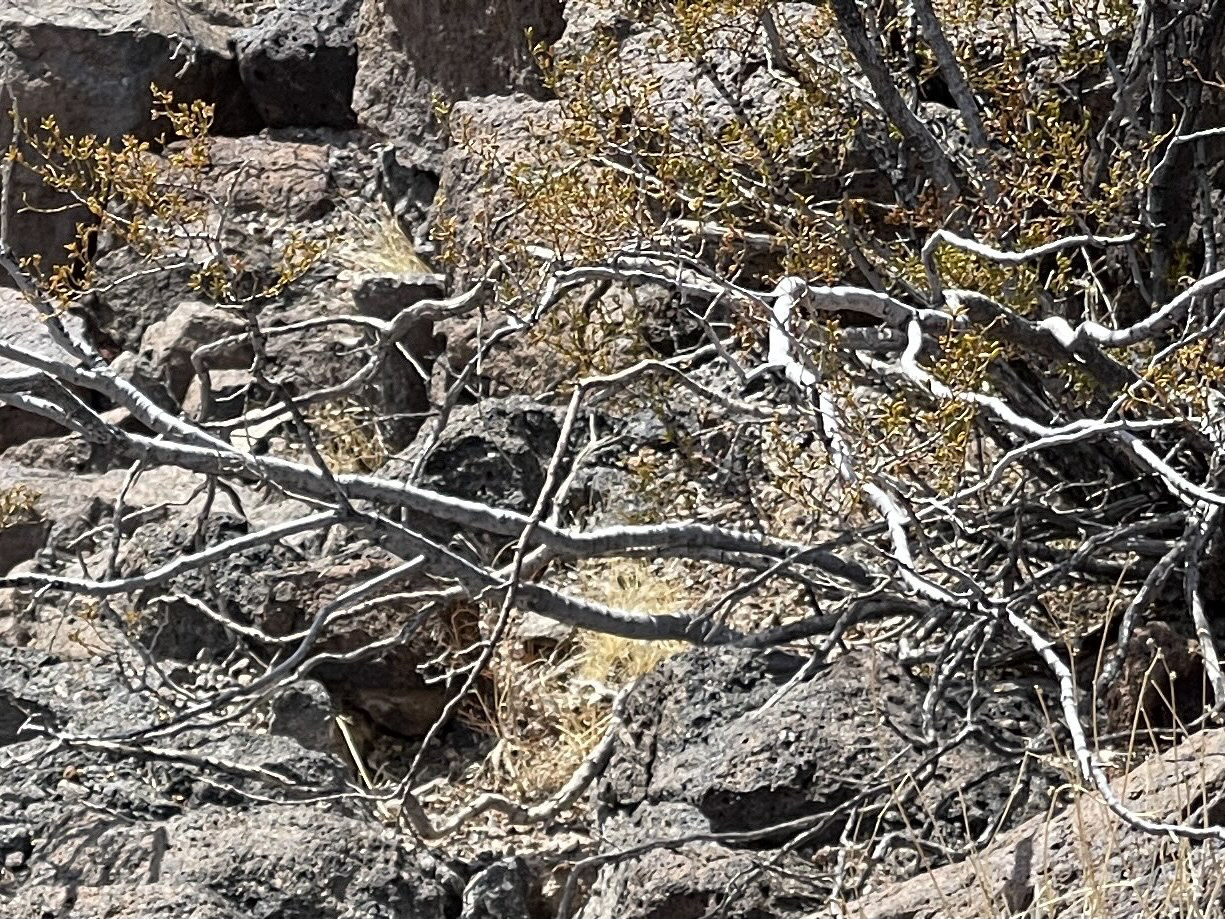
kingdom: Plantae
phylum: Tracheophyta
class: Magnoliopsida
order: Zygophyllales
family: Zygophyllaceae
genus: Larrea
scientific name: Larrea tridentata
